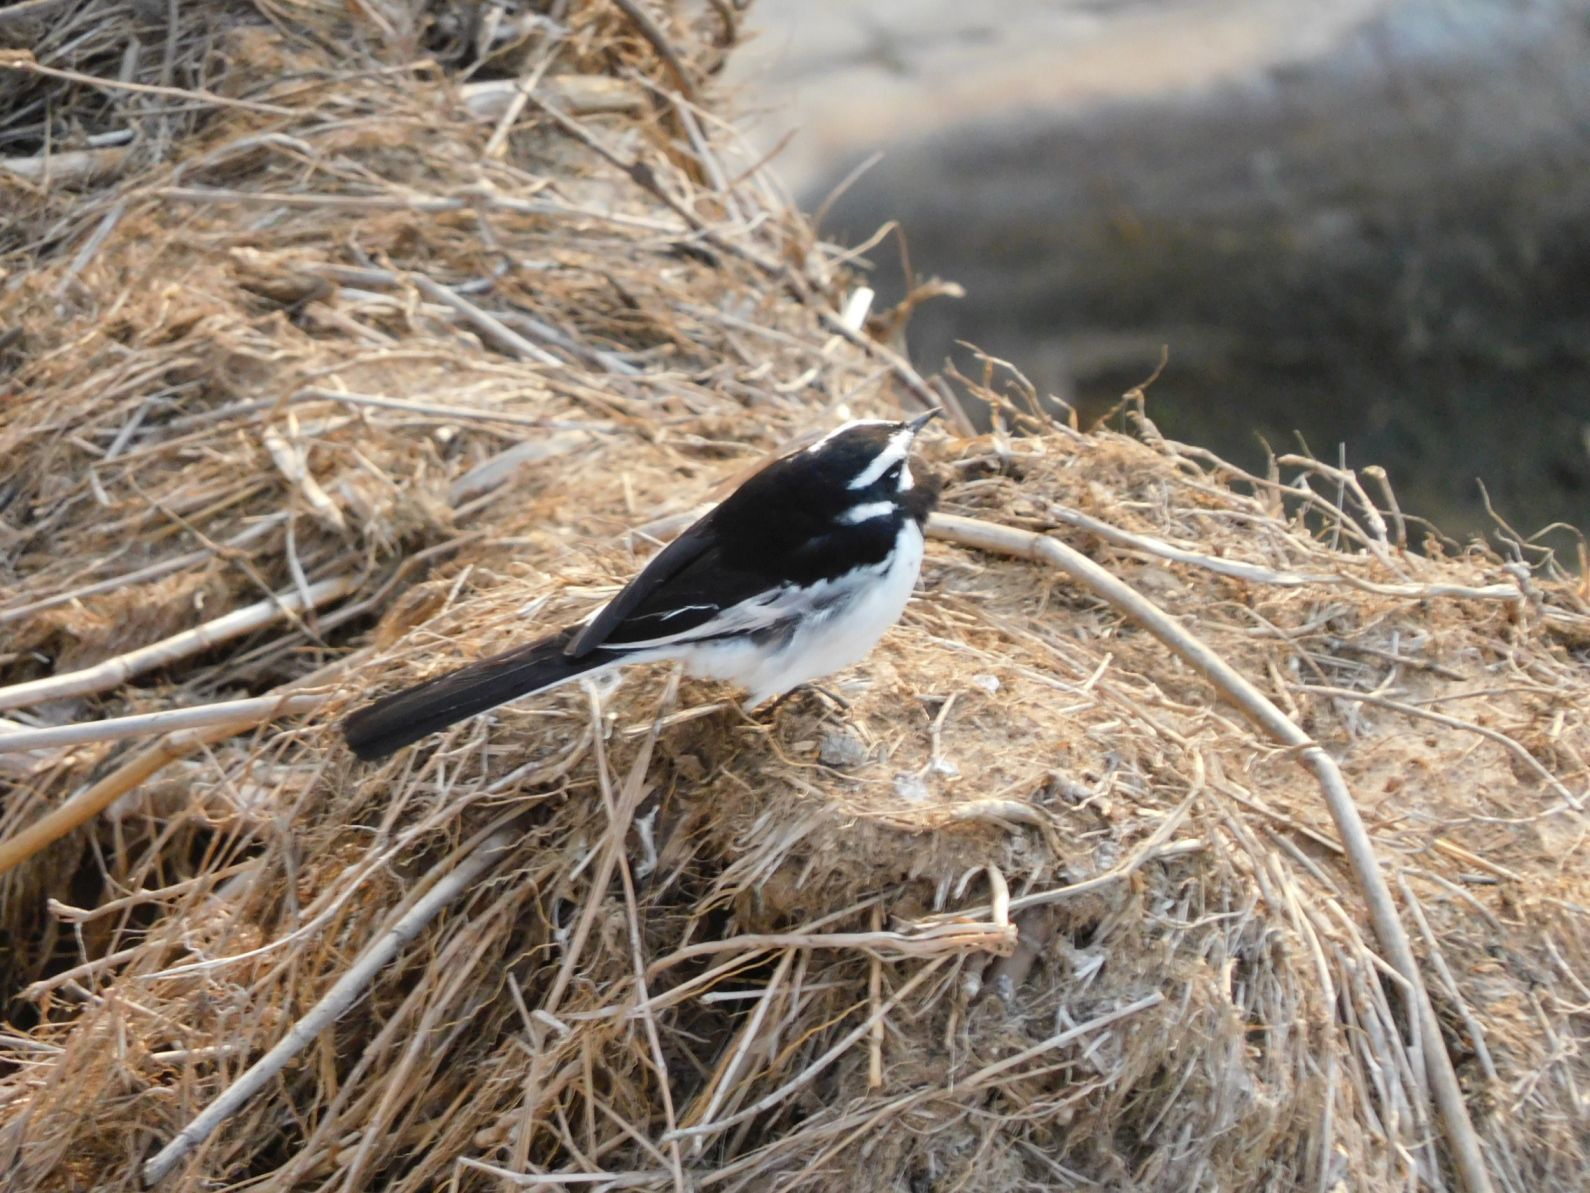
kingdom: Animalia
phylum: Chordata
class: Aves
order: Passeriformes
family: Motacillidae
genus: Motacilla
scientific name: Motacilla aguimp
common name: African pied wagtail
